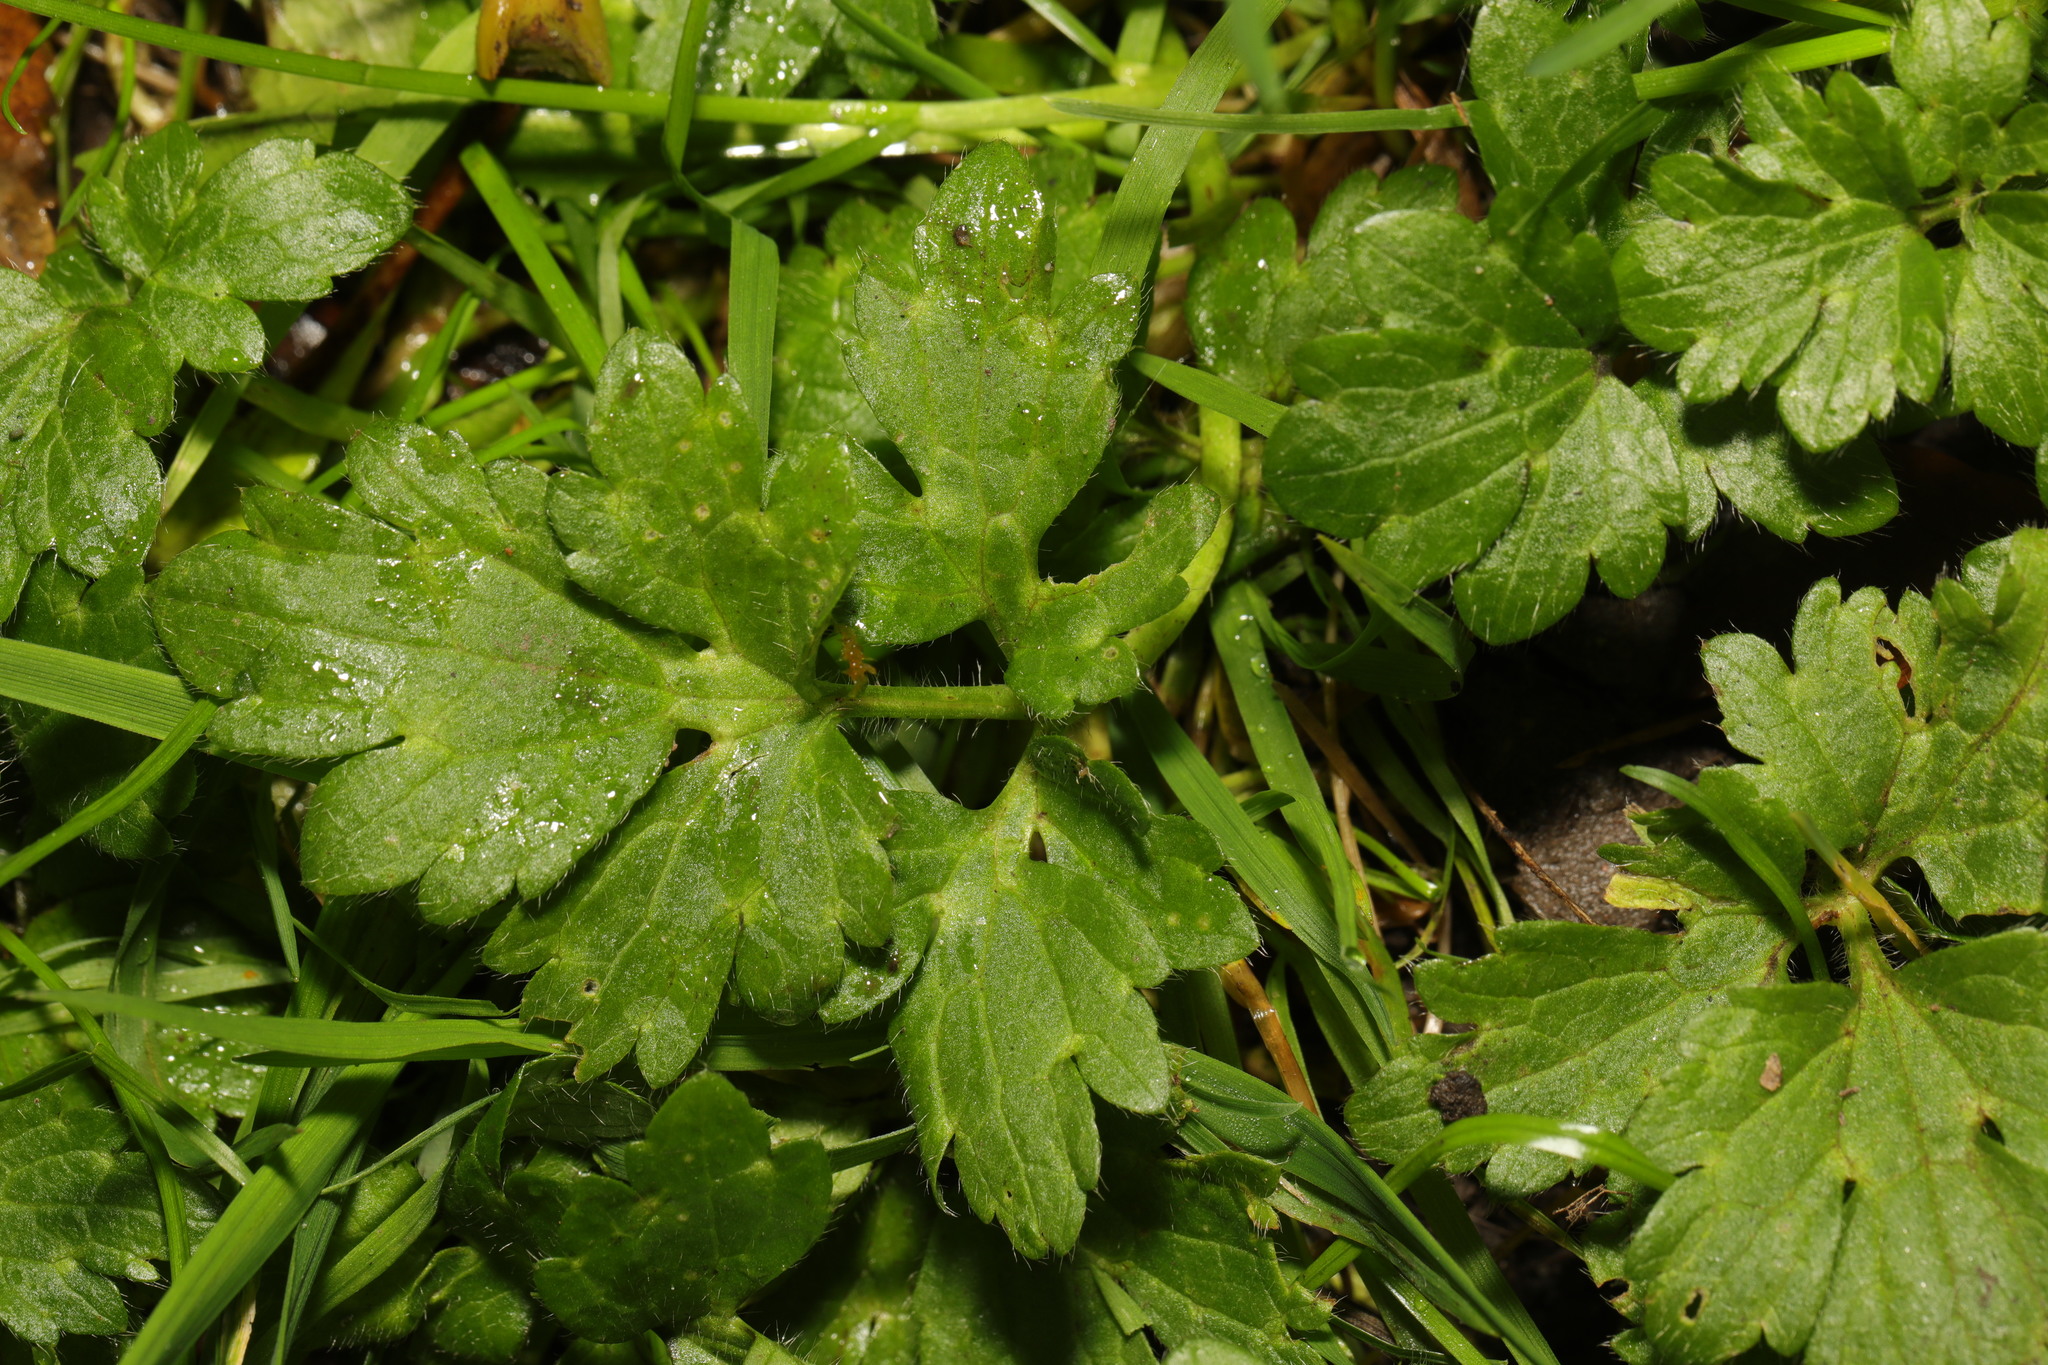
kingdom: Plantae
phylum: Tracheophyta
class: Magnoliopsida
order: Ranunculales
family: Ranunculaceae
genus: Ranunculus
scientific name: Ranunculus repens
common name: Creeping buttercup
